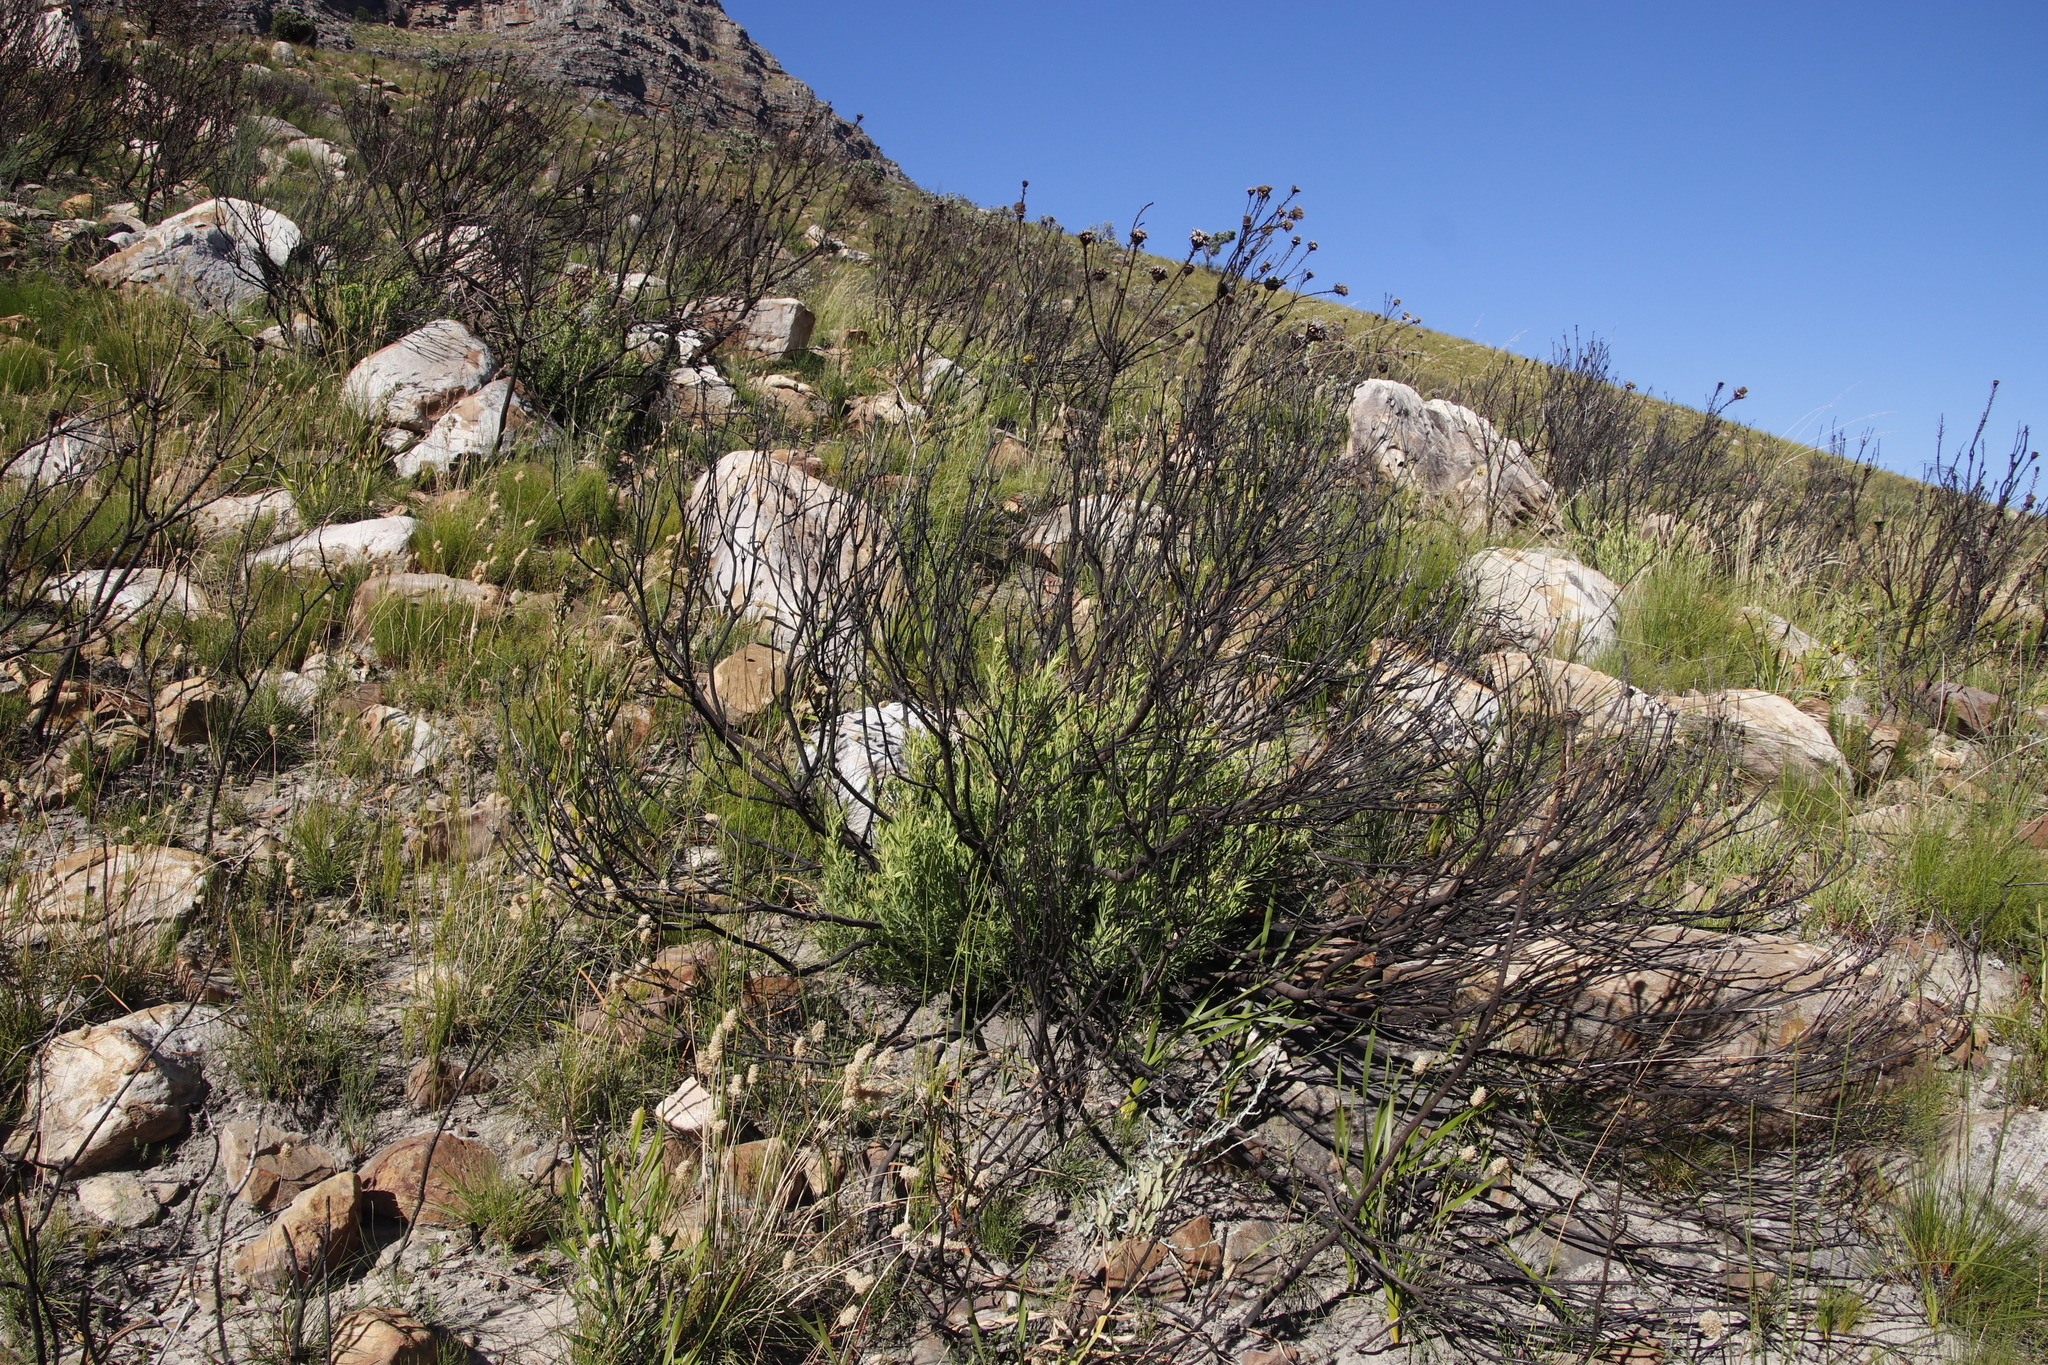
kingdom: Plantae
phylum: Tracheophyta
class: Magnoliopsida
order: Proteales
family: Proteaceae
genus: Leucadendron
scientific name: Leucadendron salignum
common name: Common sunshine conebush
